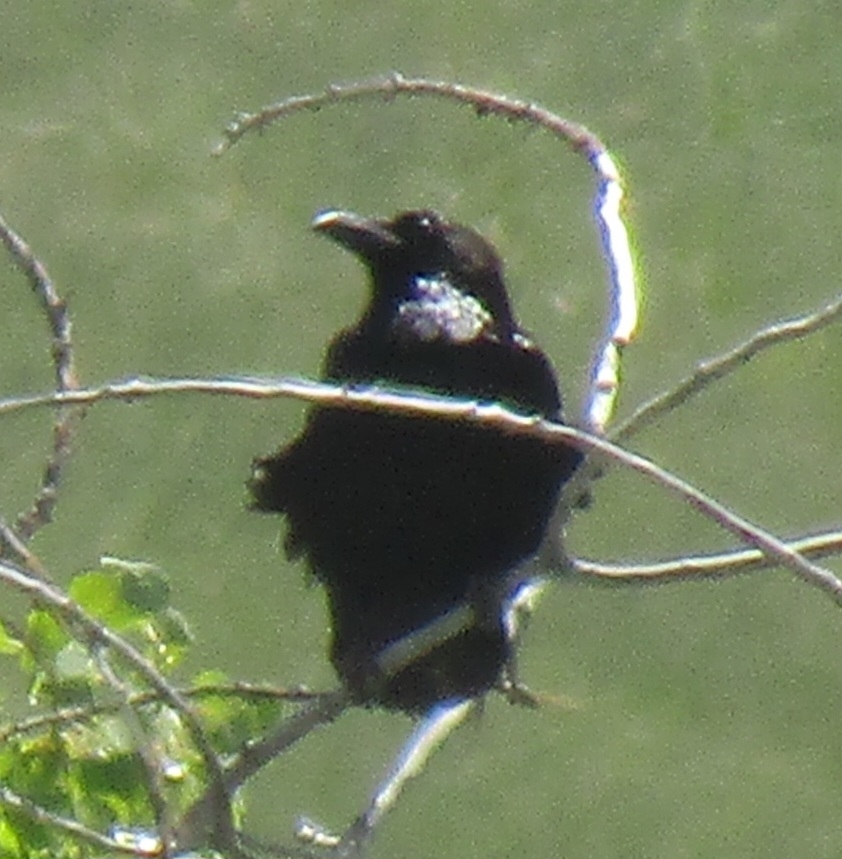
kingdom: Animalia
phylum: Chordata
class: Aves
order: Passeriformes
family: Corvidae
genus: Corvus
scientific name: Corvus corax
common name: Common raven
